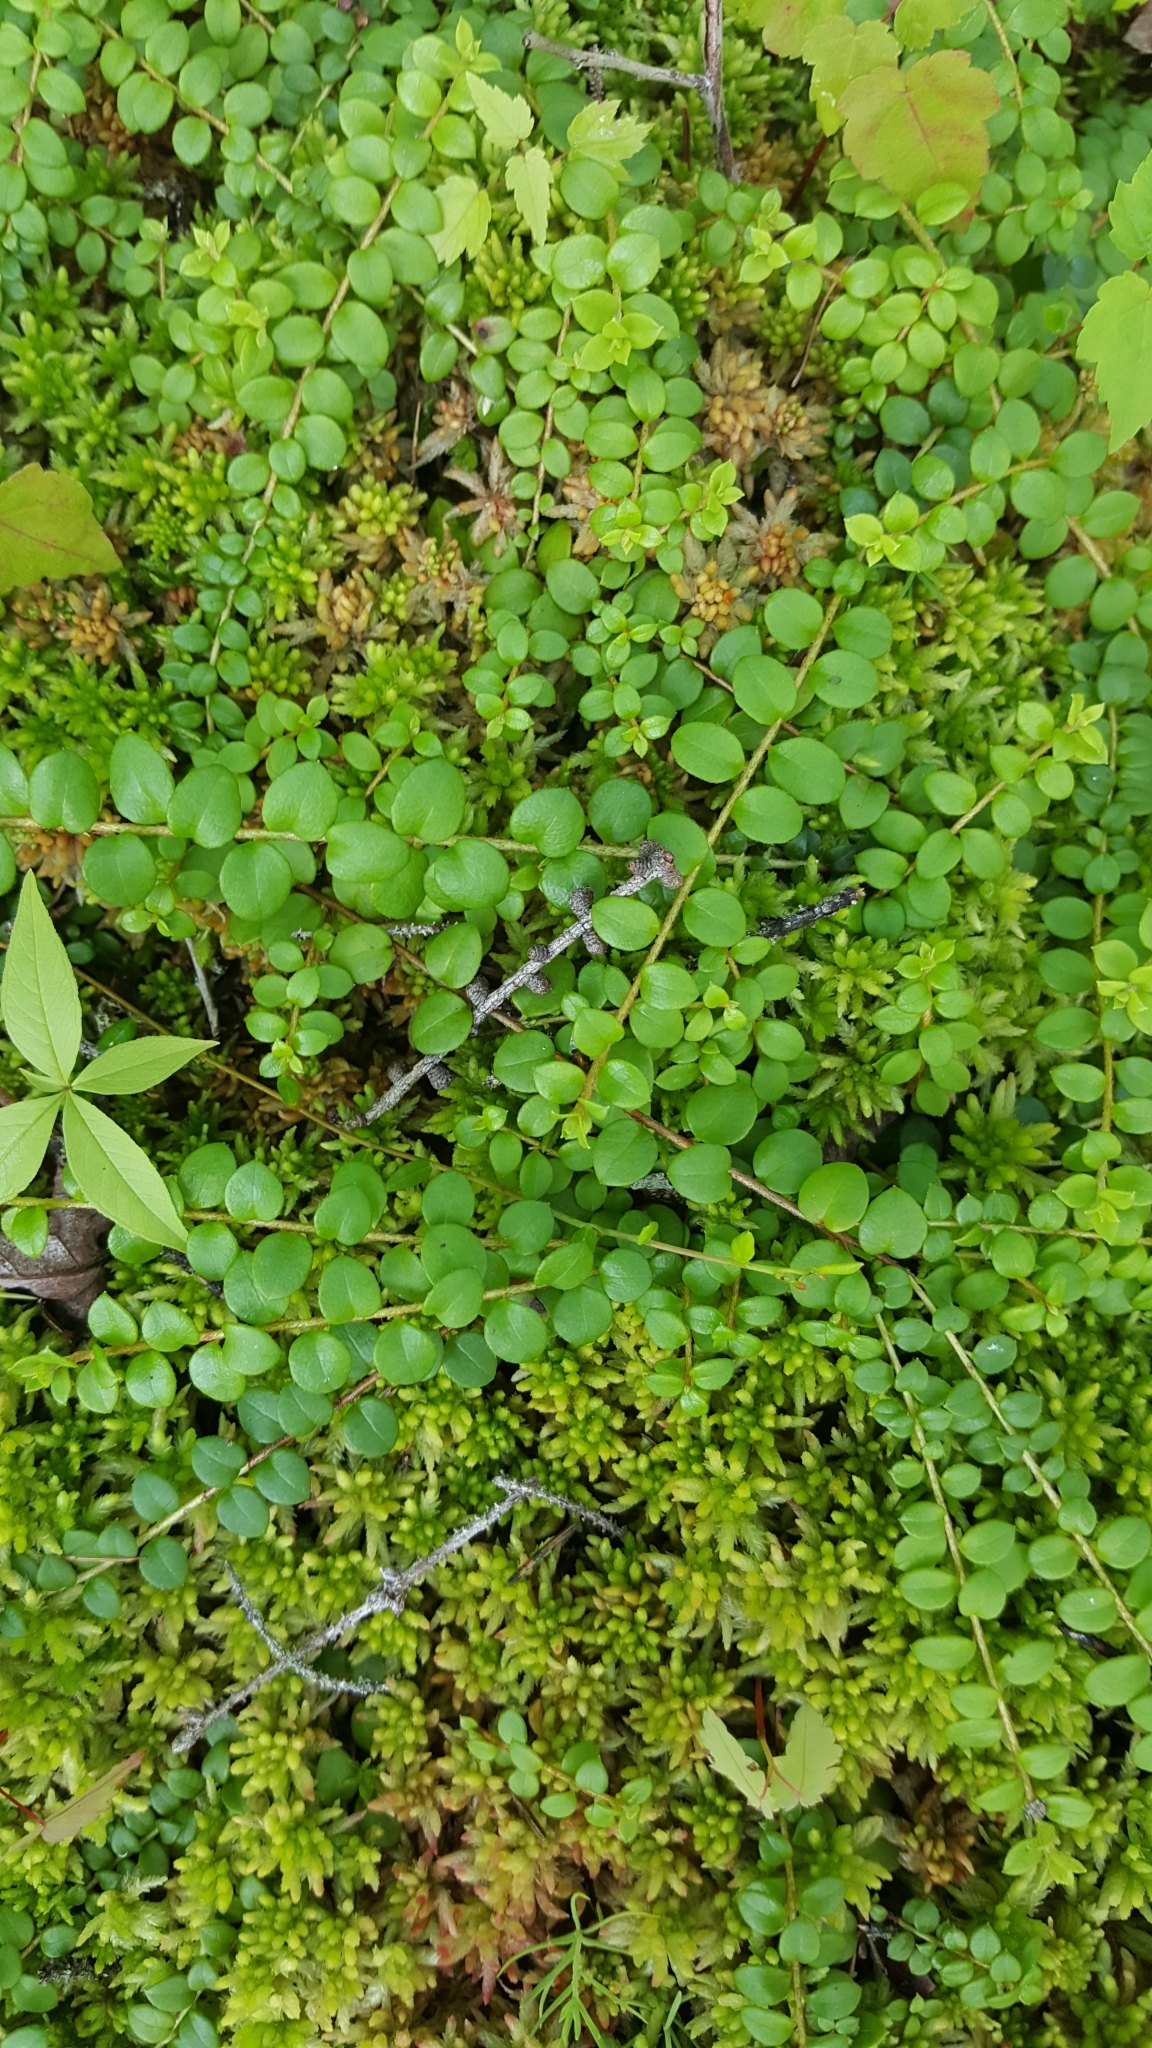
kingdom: Plantae
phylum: Tracheophyta
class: Magnoliopsida
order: Ericales
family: Ericaceae
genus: Gaultheria
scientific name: Gaultheria hispidula
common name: Cancer wintergreen
